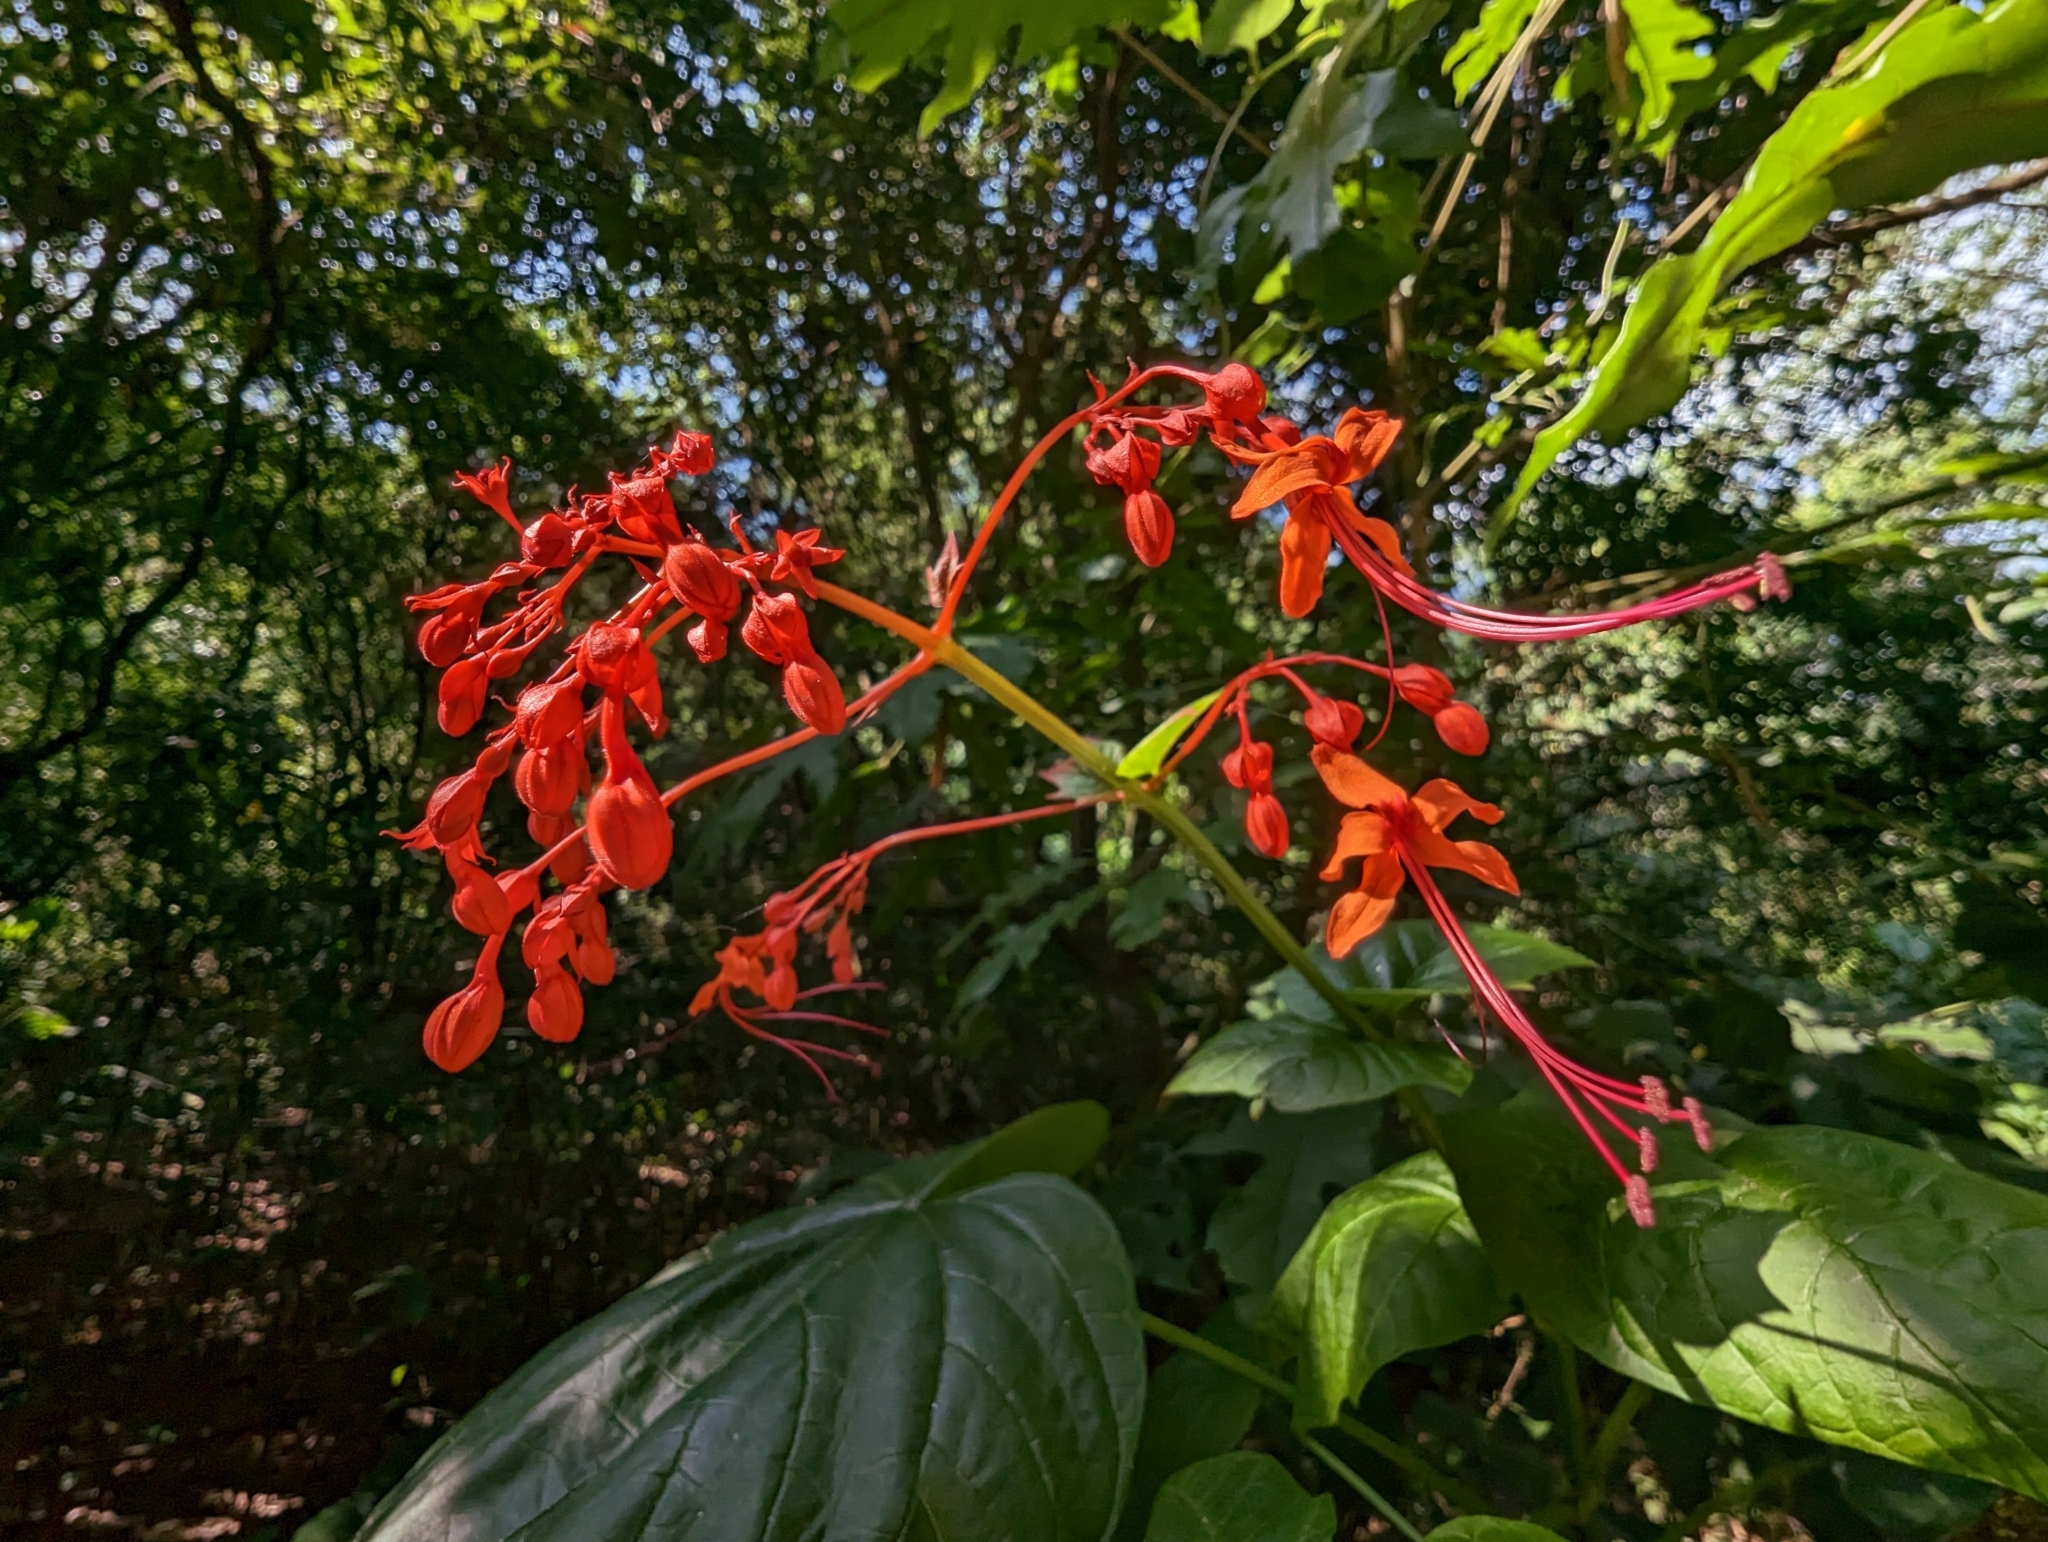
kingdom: Plantae
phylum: Tracheophyta
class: Magnoliopsida
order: Lamiales
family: Lamiaceae
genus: Clerodendrum
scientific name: Clerodendrum japonicum
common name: Japanese glorybower
